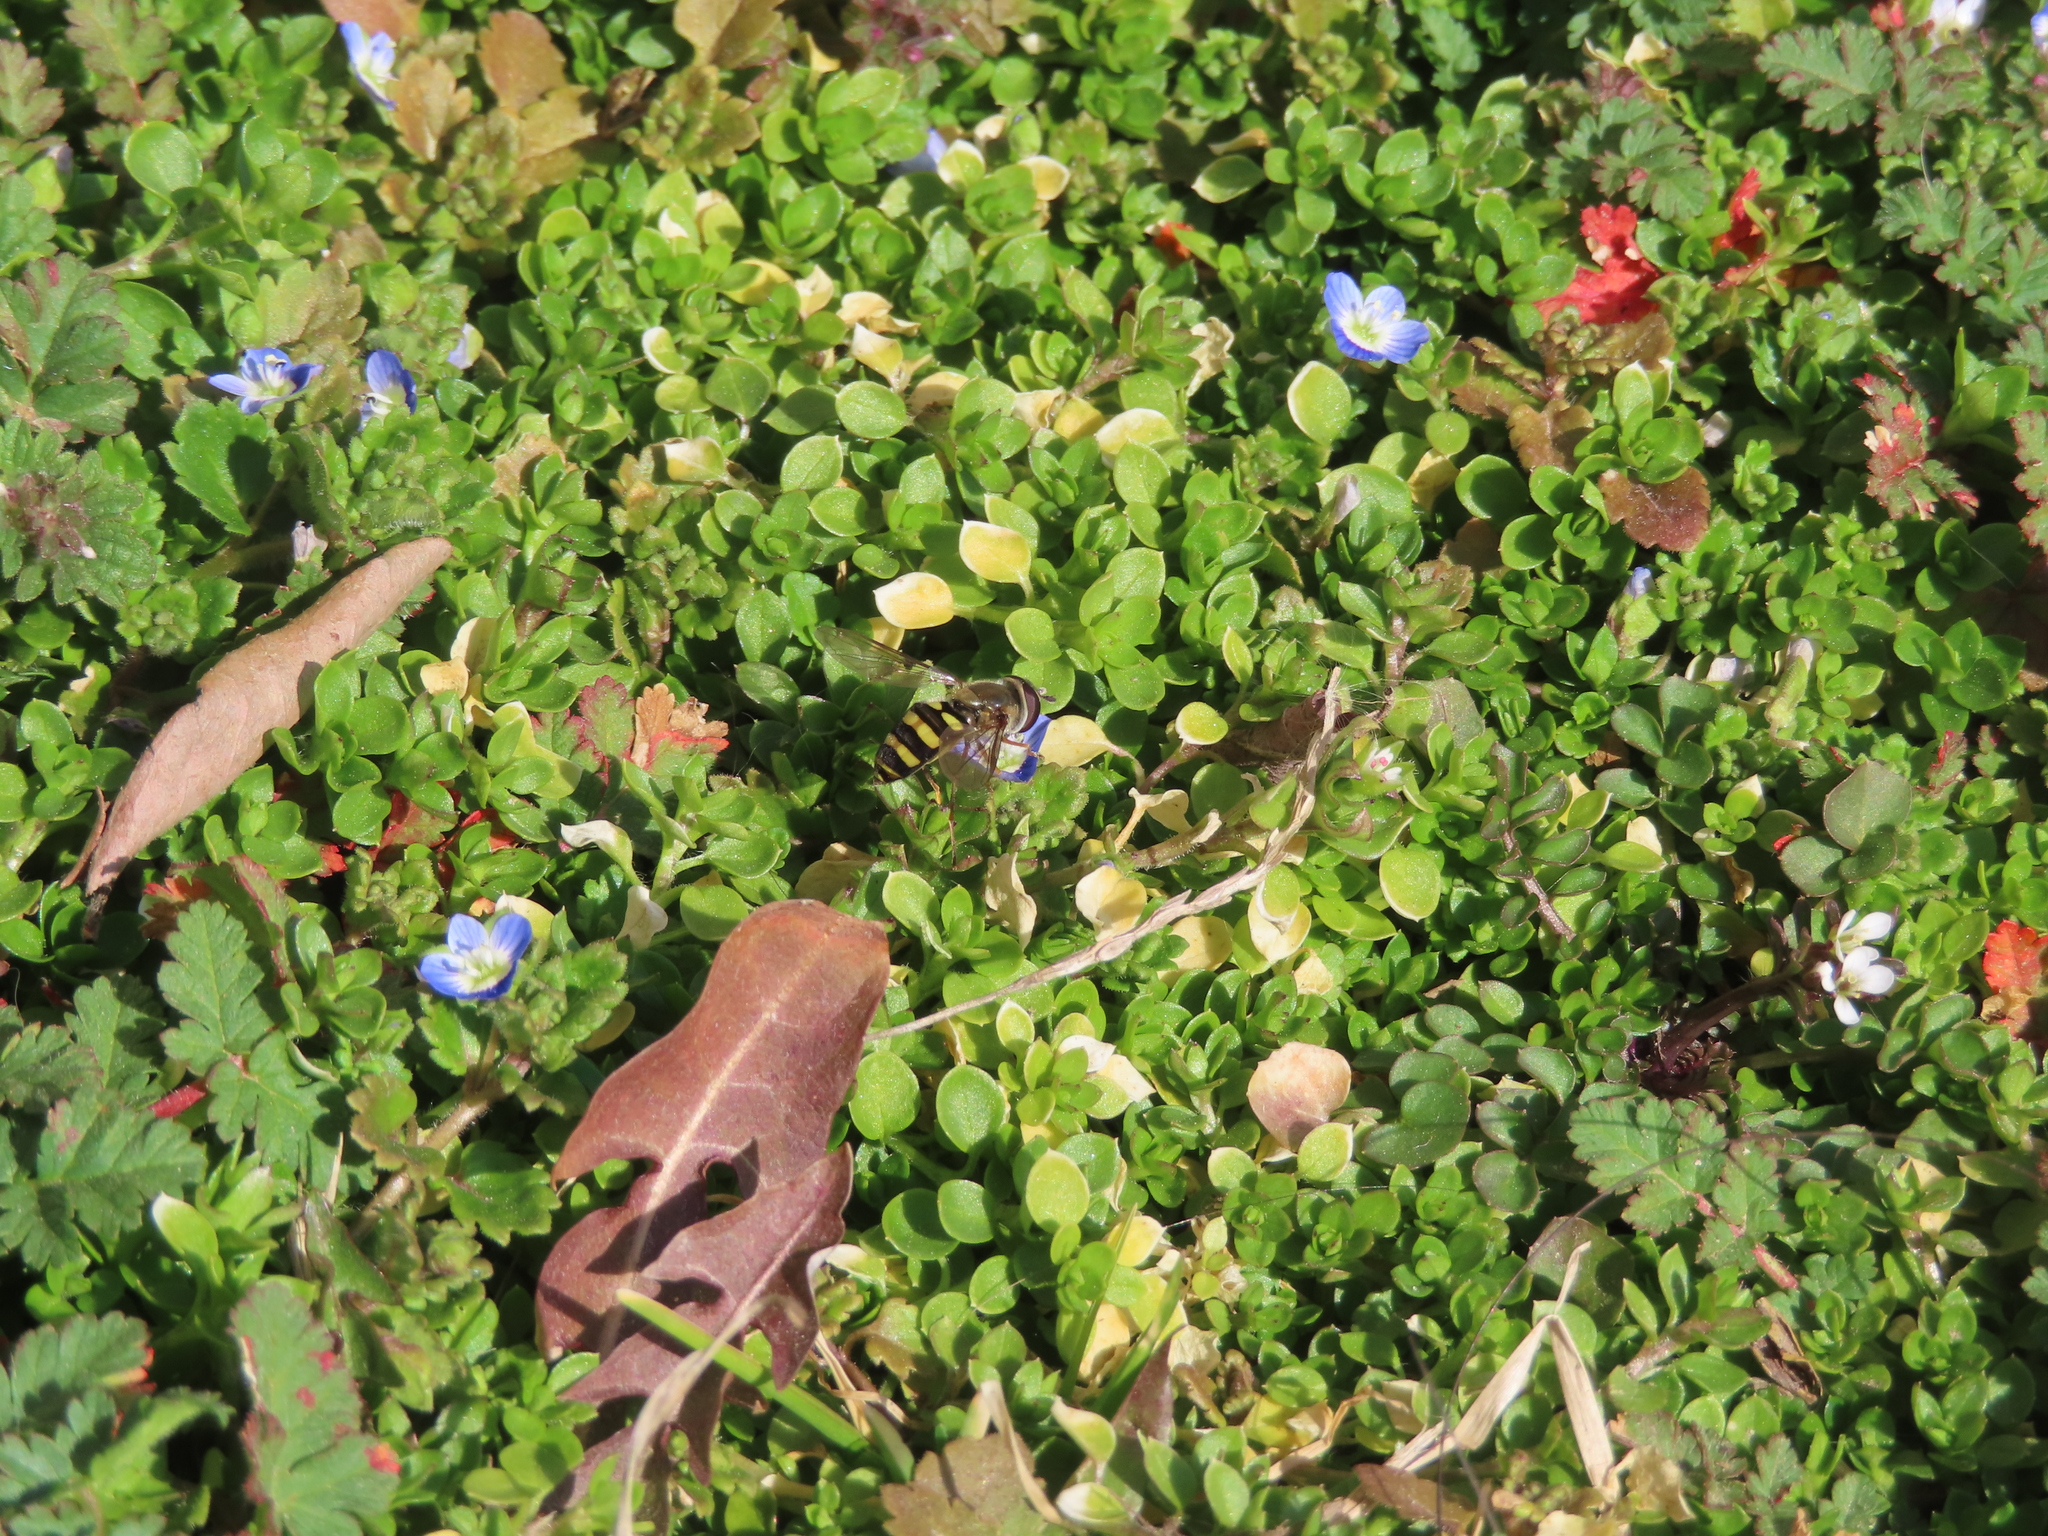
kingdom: Animalia
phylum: Arthropoda
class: Insecta
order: Diptera
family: Syrphidae
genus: Eupeodes
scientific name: Eupeodes
